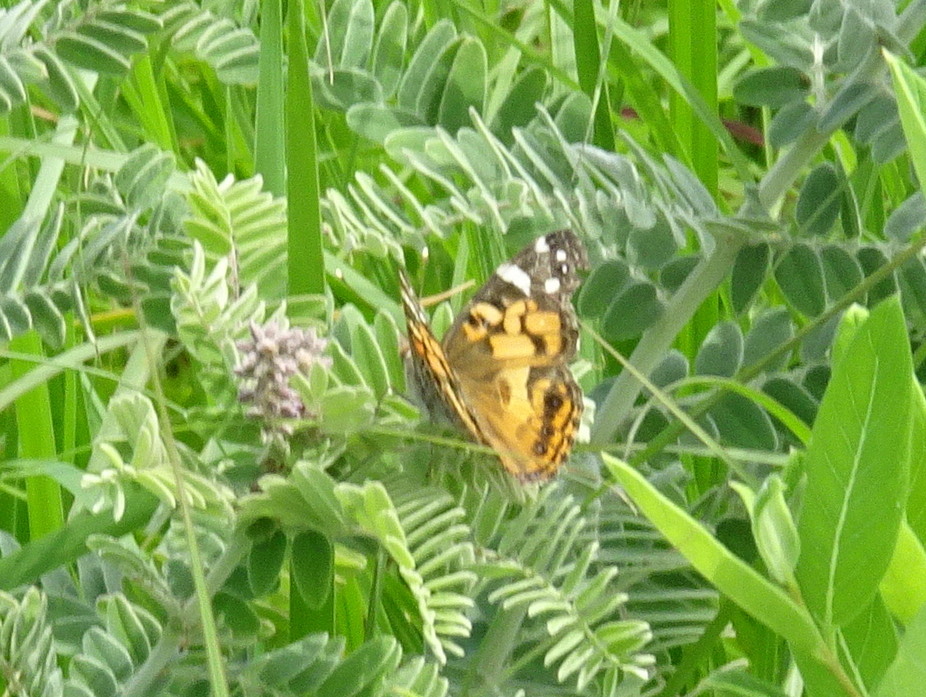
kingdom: Animalia
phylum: Arthropoda
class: Insecta
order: Lepidoptera
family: Nymphalidae
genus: Vanessa
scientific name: Vanessa virginiensis
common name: American lady
